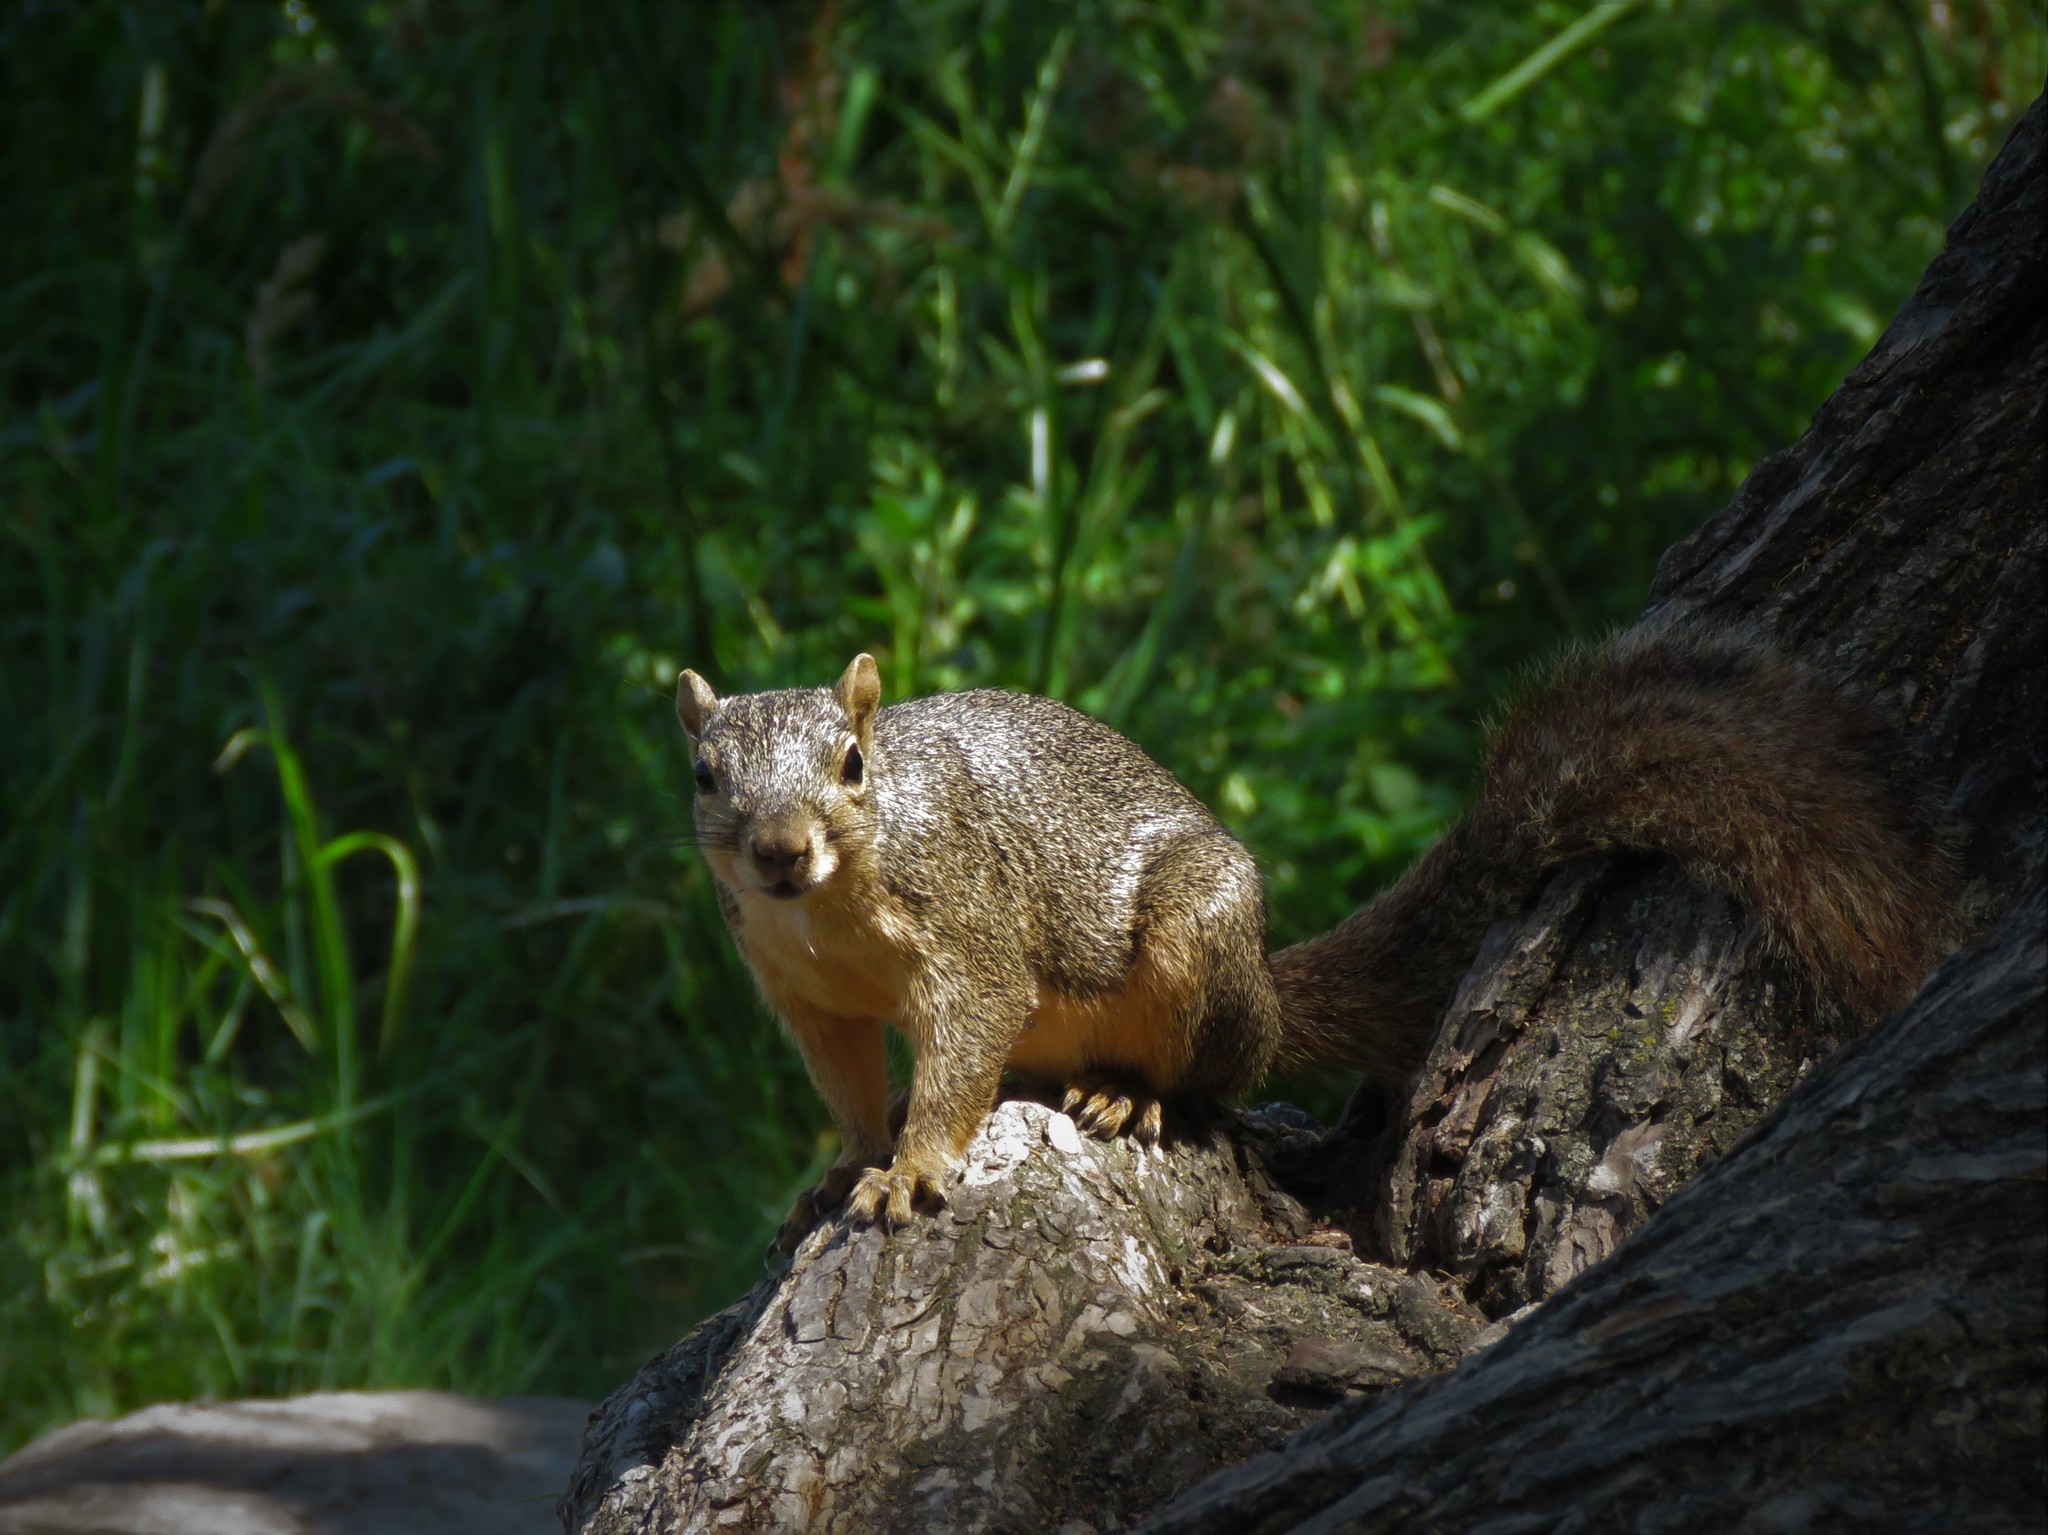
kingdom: Animalia
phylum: Chordata
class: Mammalia
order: Rodentia
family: Sciuridae
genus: Sciurus
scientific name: Sciurus niger
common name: Fox squirrel
